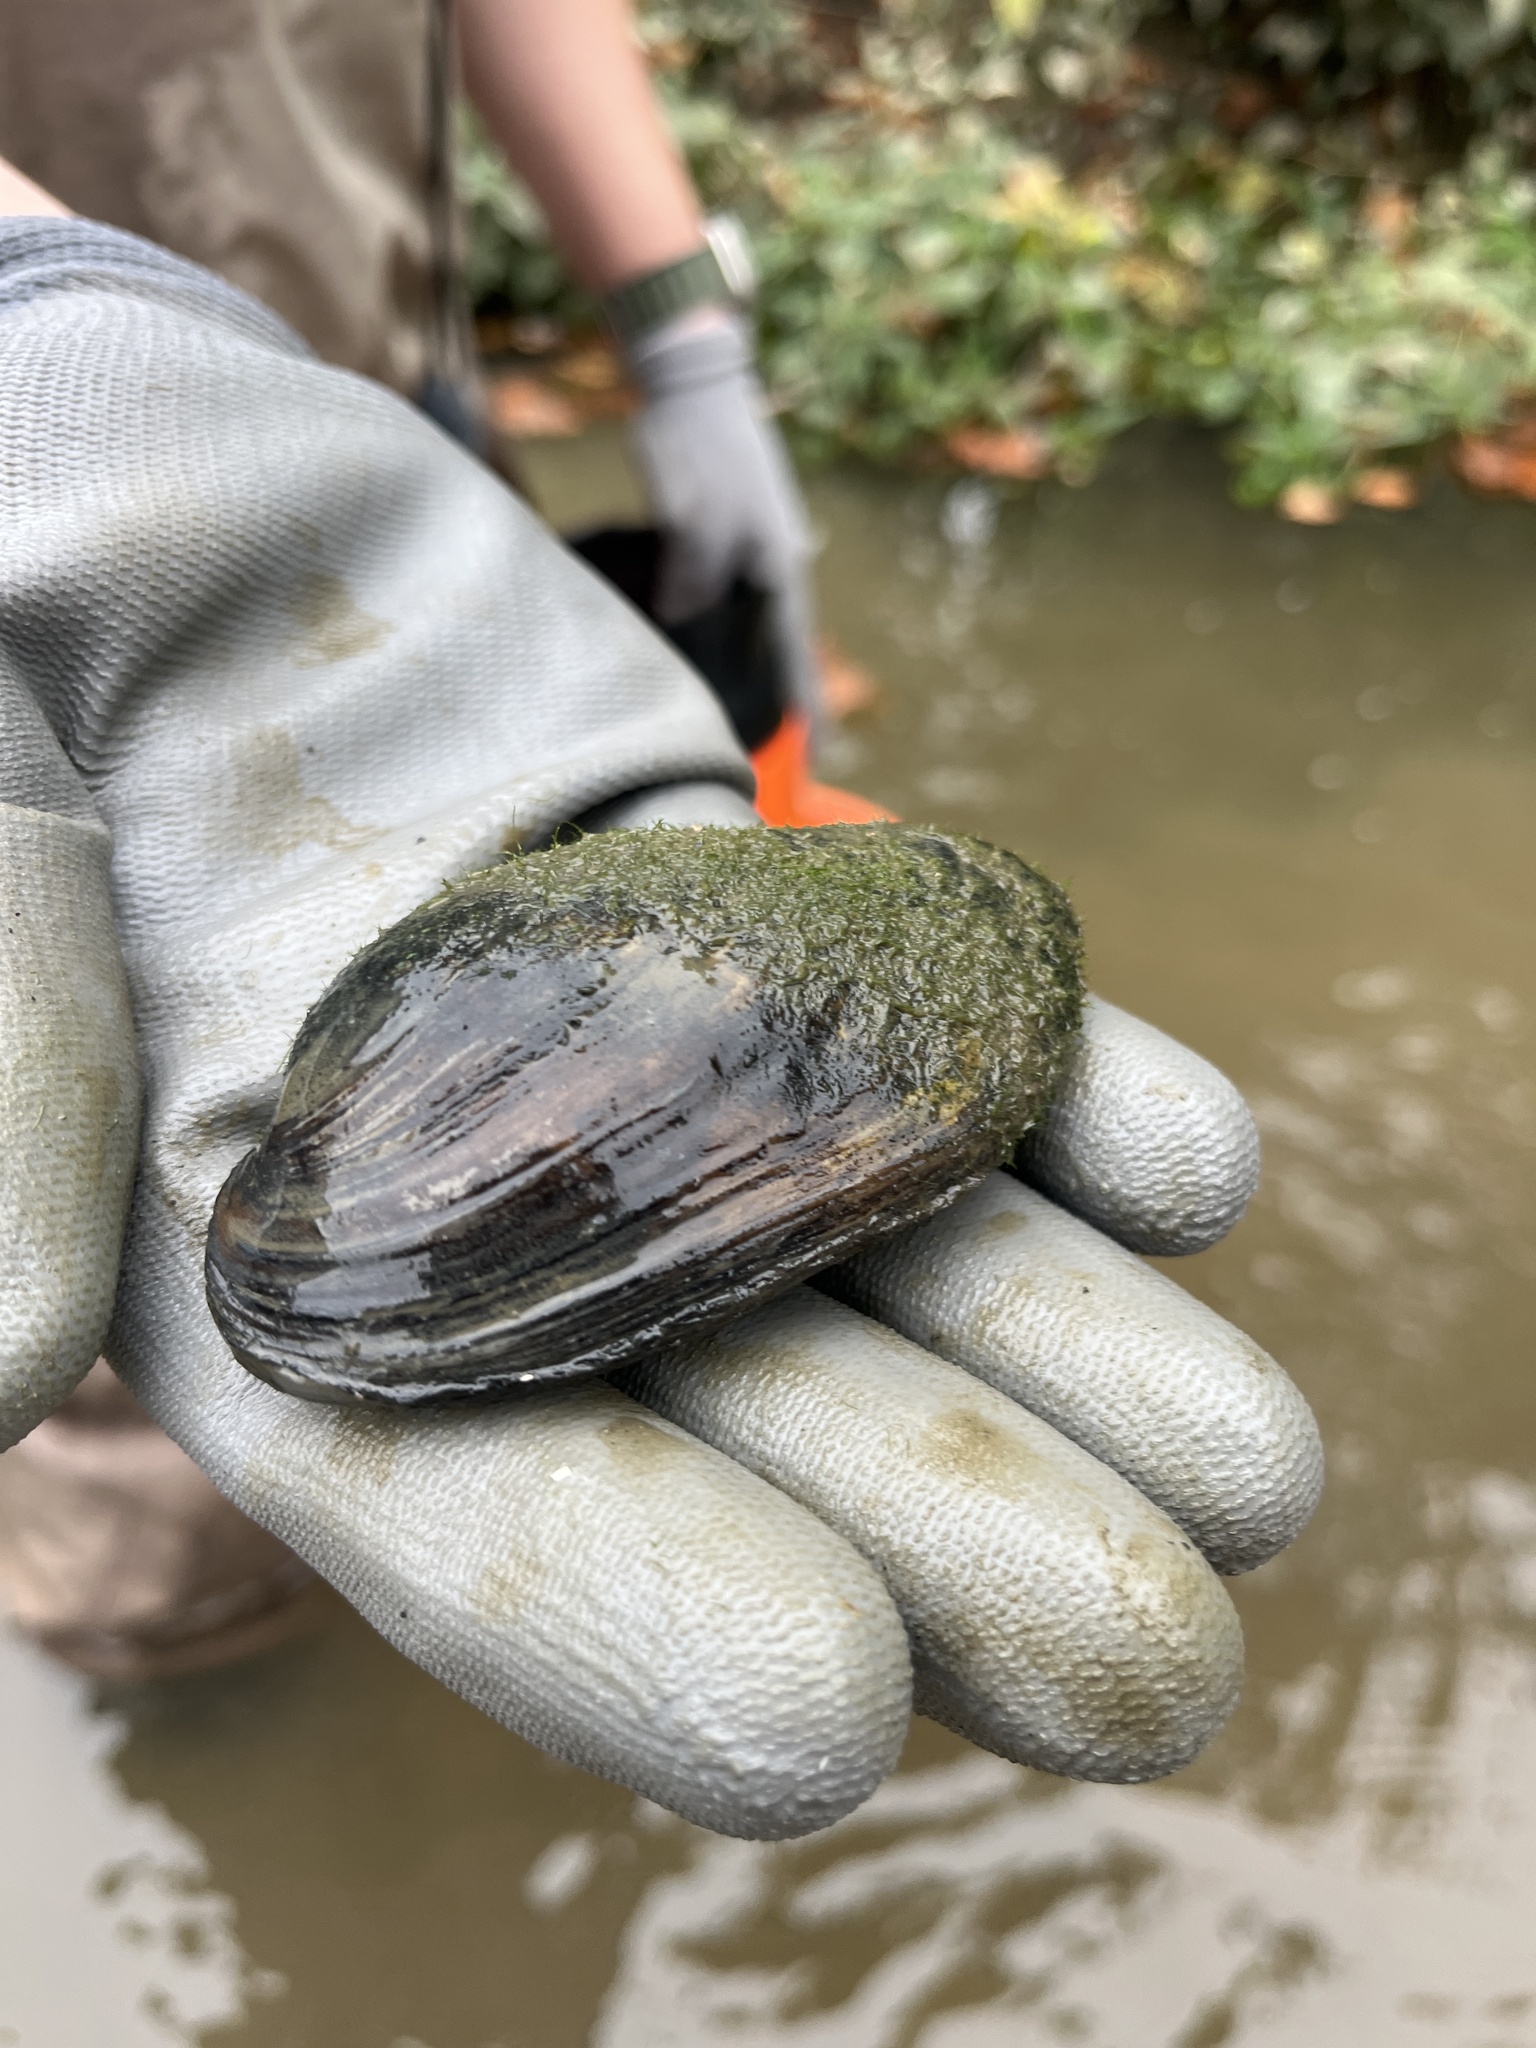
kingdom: Animalia
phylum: Mollusca
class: Bivalvia
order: Unionida
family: Unionidae
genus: Lampsilis
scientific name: Lampsilis siliquoidea
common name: Fatmucket
